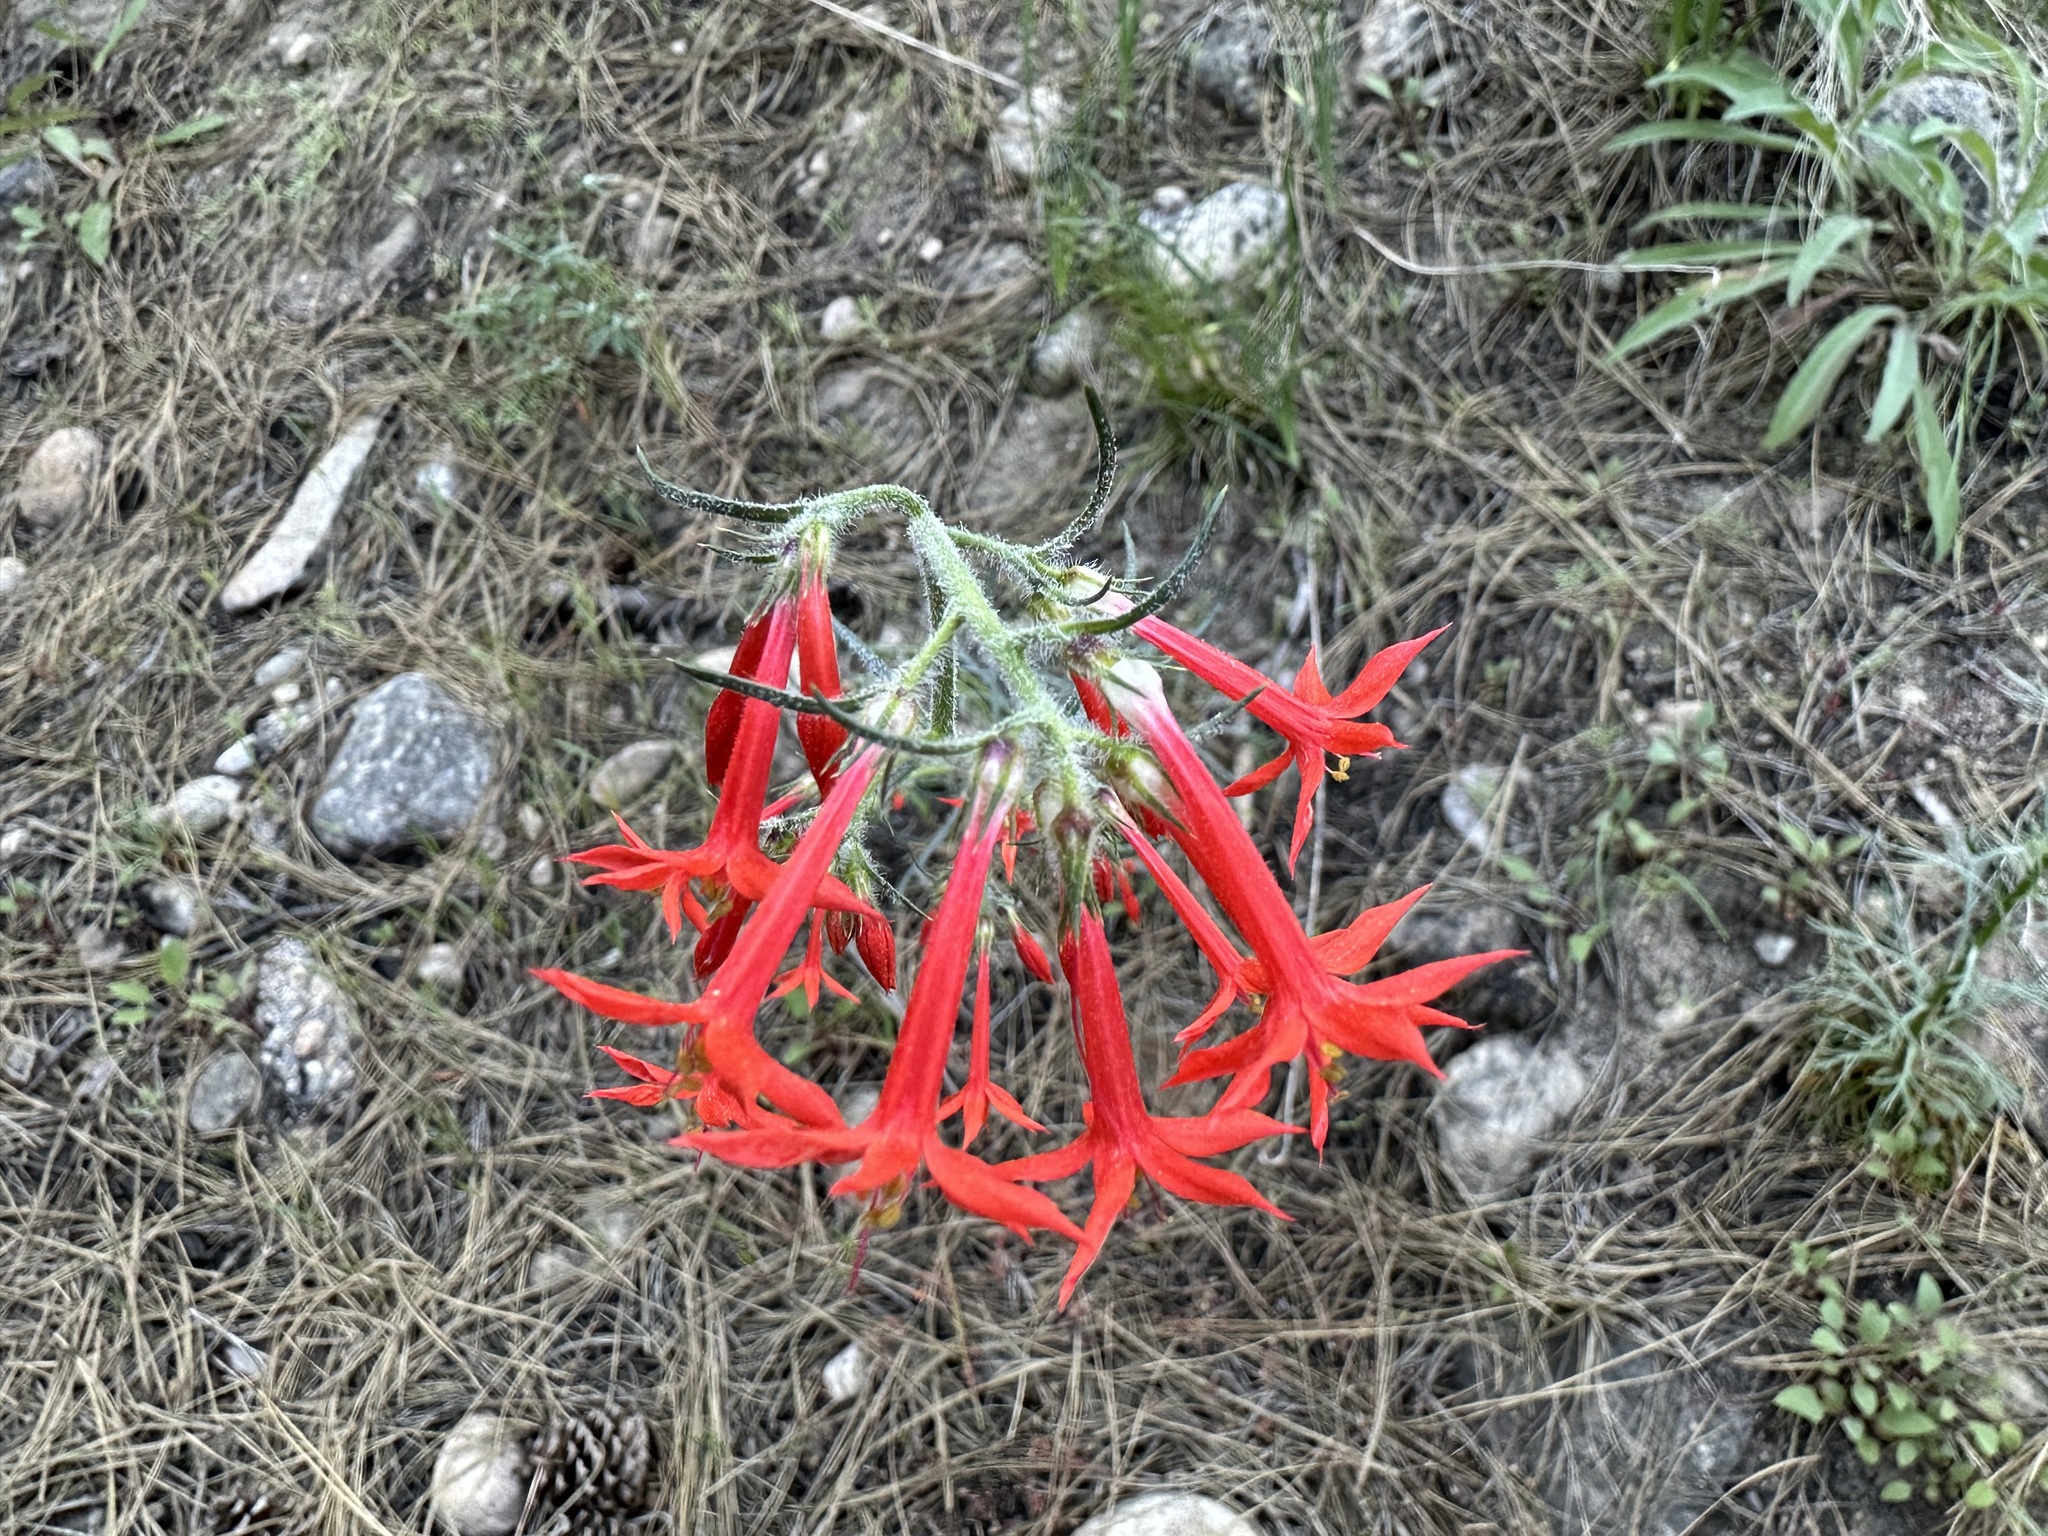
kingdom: Plantae
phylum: Tracheophyta
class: Magnoliopsida
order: Ericales
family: Polemoniaceae
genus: Ipomopsis
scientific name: Ipomopsis aggregata
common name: Scarlet gilia
